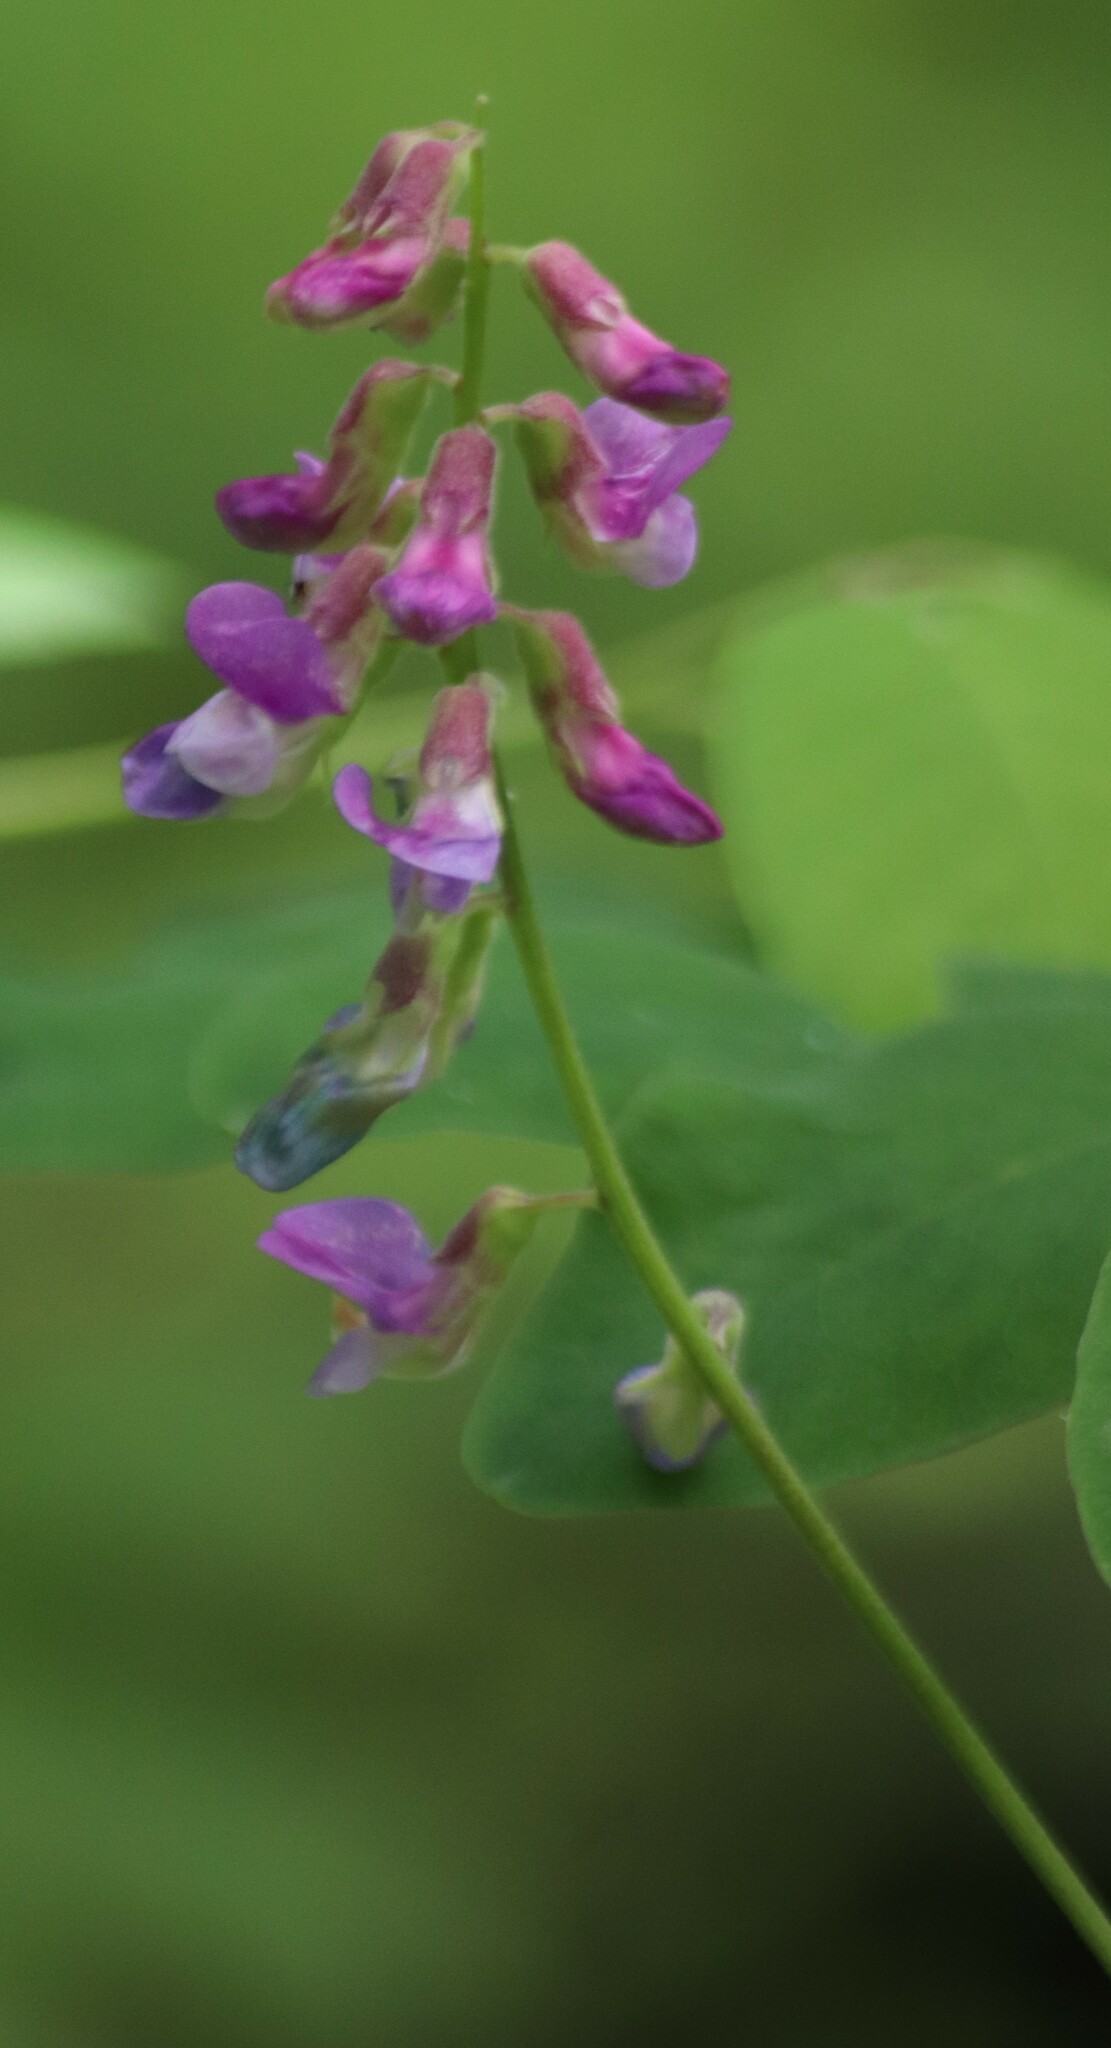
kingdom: Plantae
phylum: Tracheophyta
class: Magnoliopsida
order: Fabales
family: Fabaceae
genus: Lathyrus
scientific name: Lathyrus venosus
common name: Forest-pea
